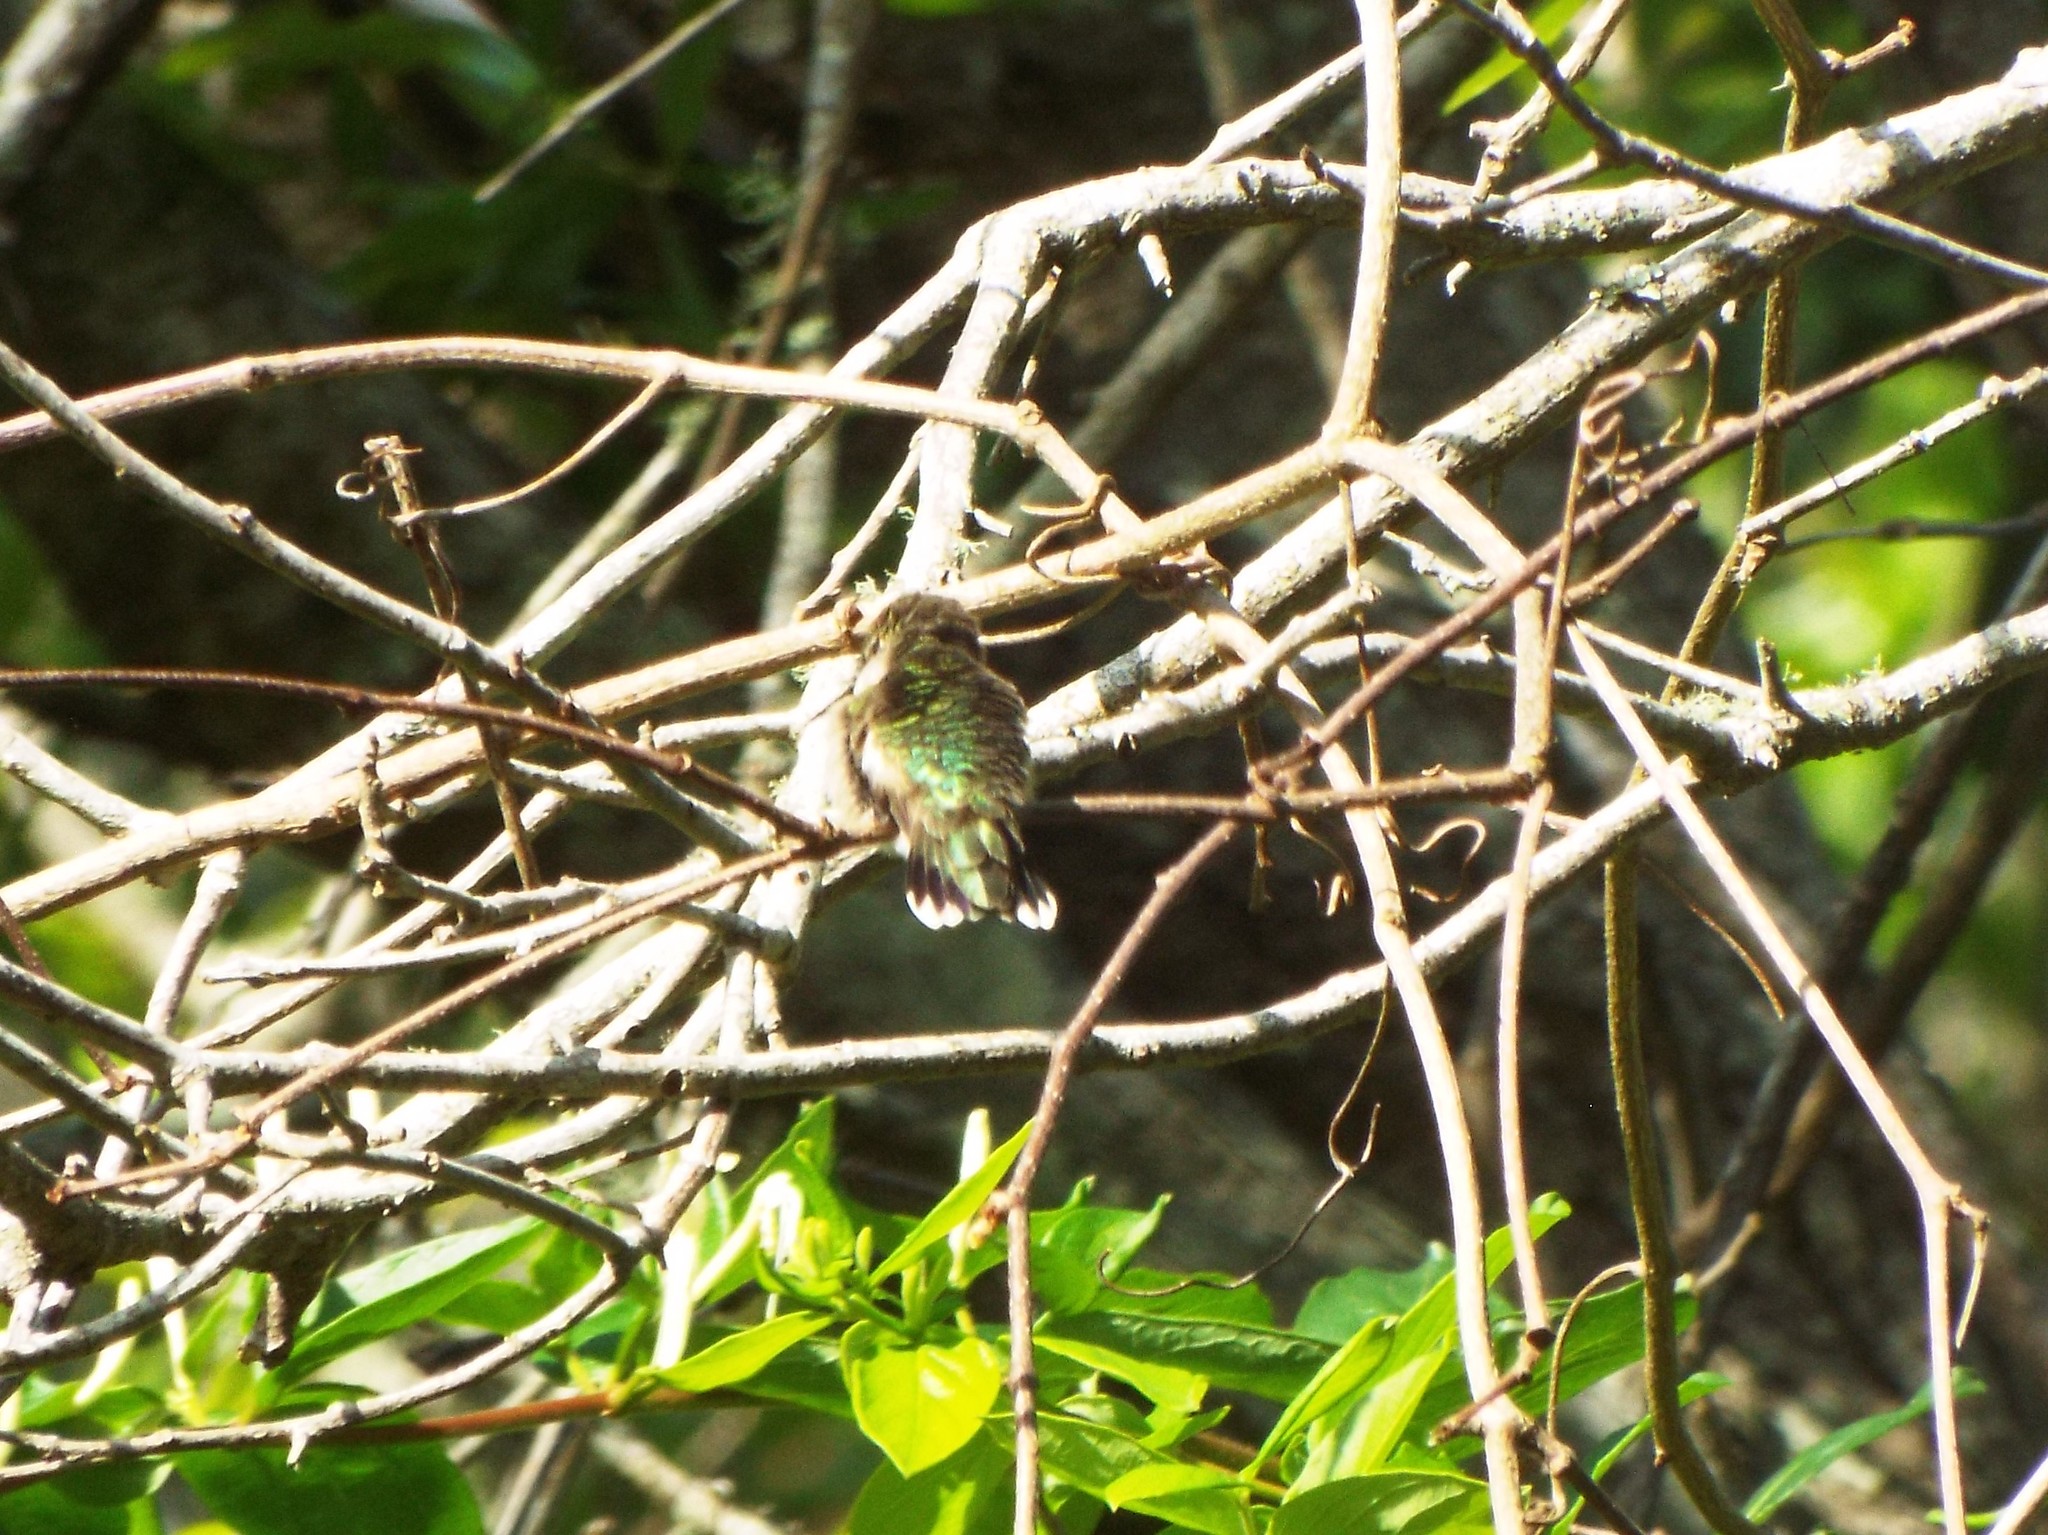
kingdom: Animalia
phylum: Chordata
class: Aves
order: Apodiformes
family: Trochilidae
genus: Archilochus
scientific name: Archilochus colubris
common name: Ruby-throated hummingbird
